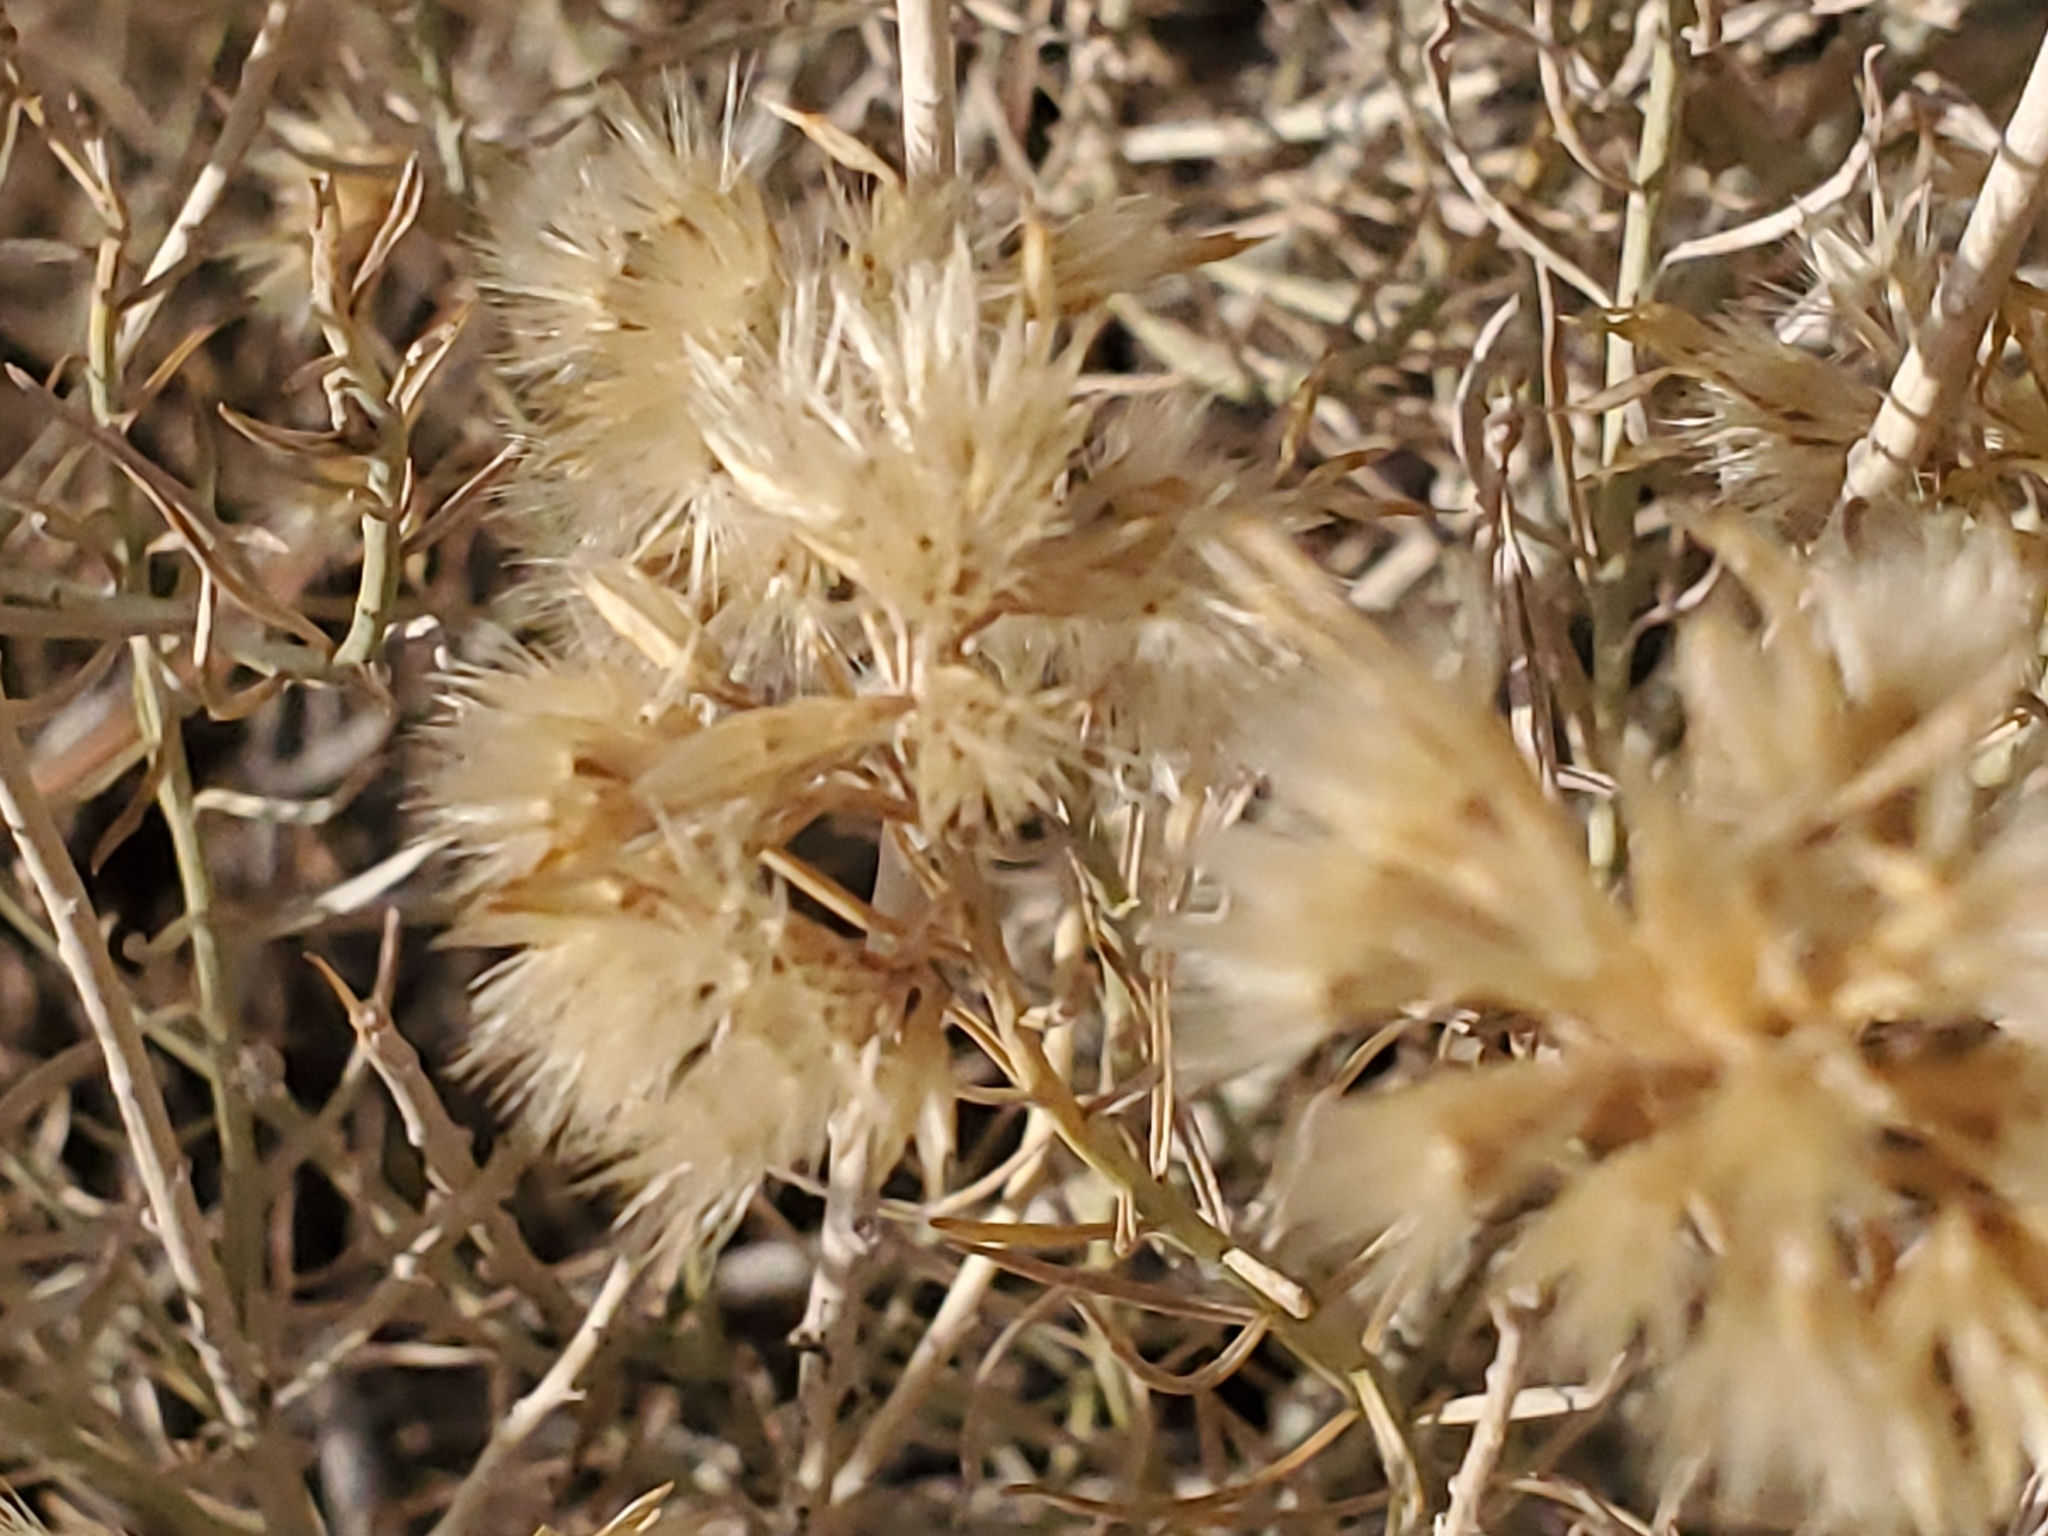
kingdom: Plantae
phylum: Tracheophyta
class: Magnoliopsida
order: Asterales
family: Asteraceae
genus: Ericameria
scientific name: Ericameria nauseosa
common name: Rubber rabbitbrush
